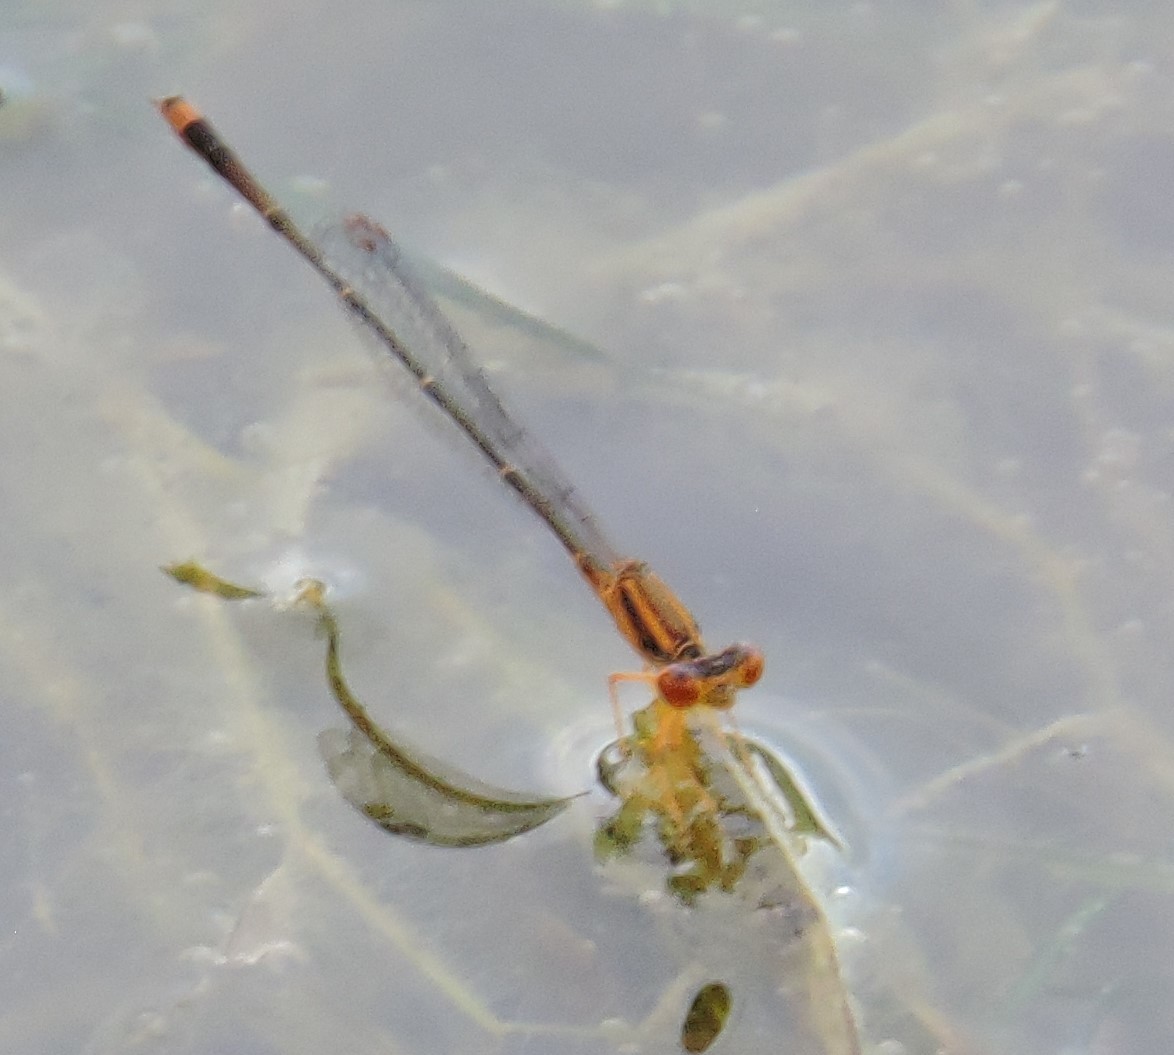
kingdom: Animalia
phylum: Arthropoda
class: Insecta
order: Odonata
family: Coenagrionidae
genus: Enallagma
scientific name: Enallagma signatum
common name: Orange bluet
